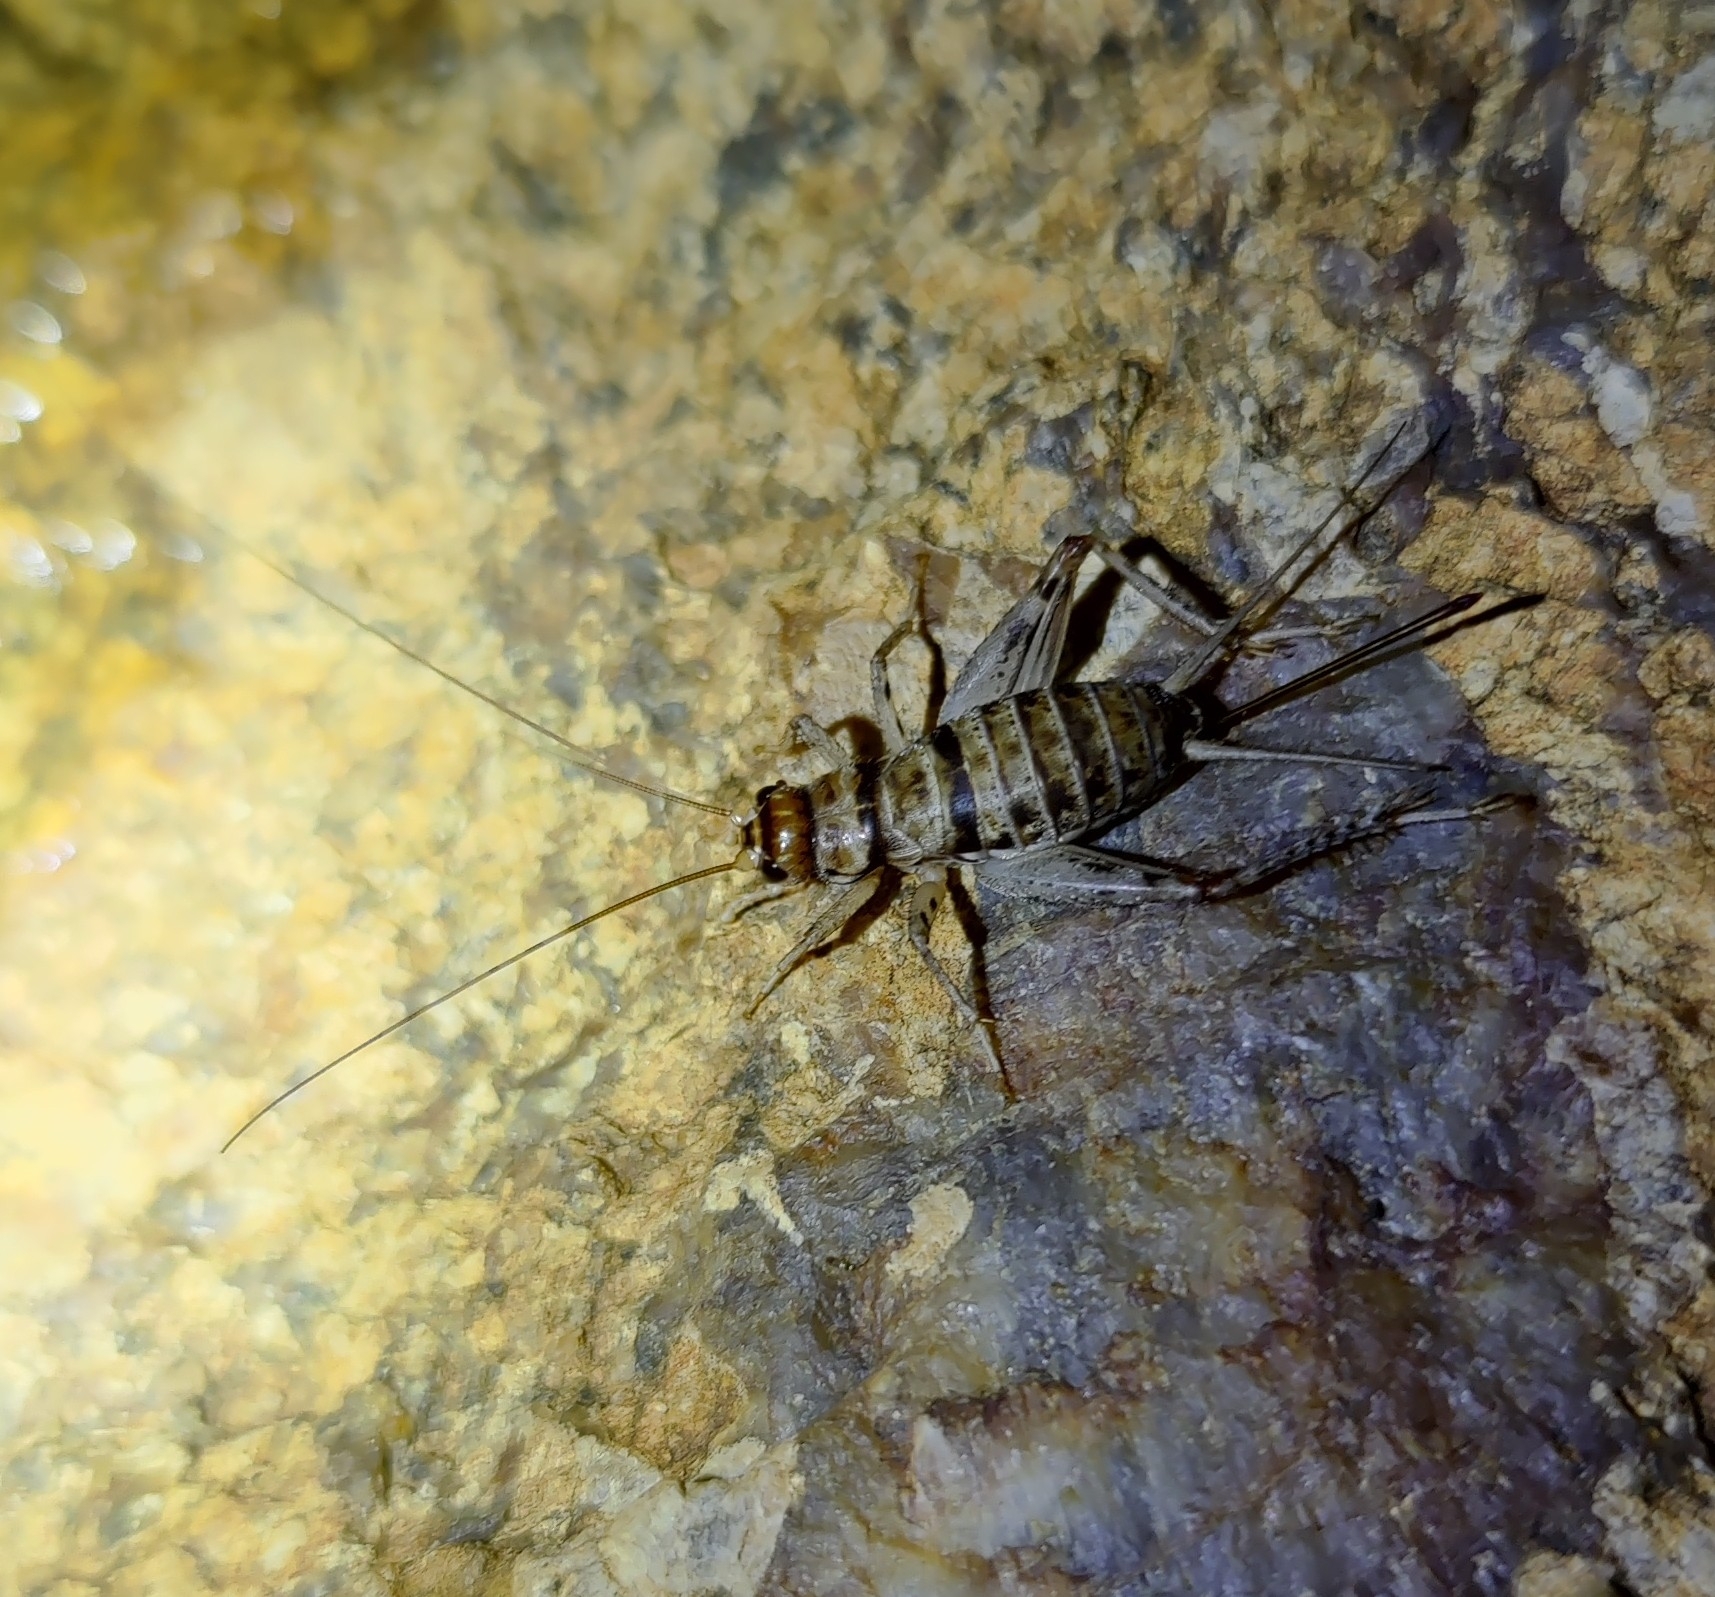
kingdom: Animalia
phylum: Arthropoda
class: Insecta
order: Orthoptera
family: Gryllidae
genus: Gryllodes
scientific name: Gryllodes sigillatus
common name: Tropical house cricket
